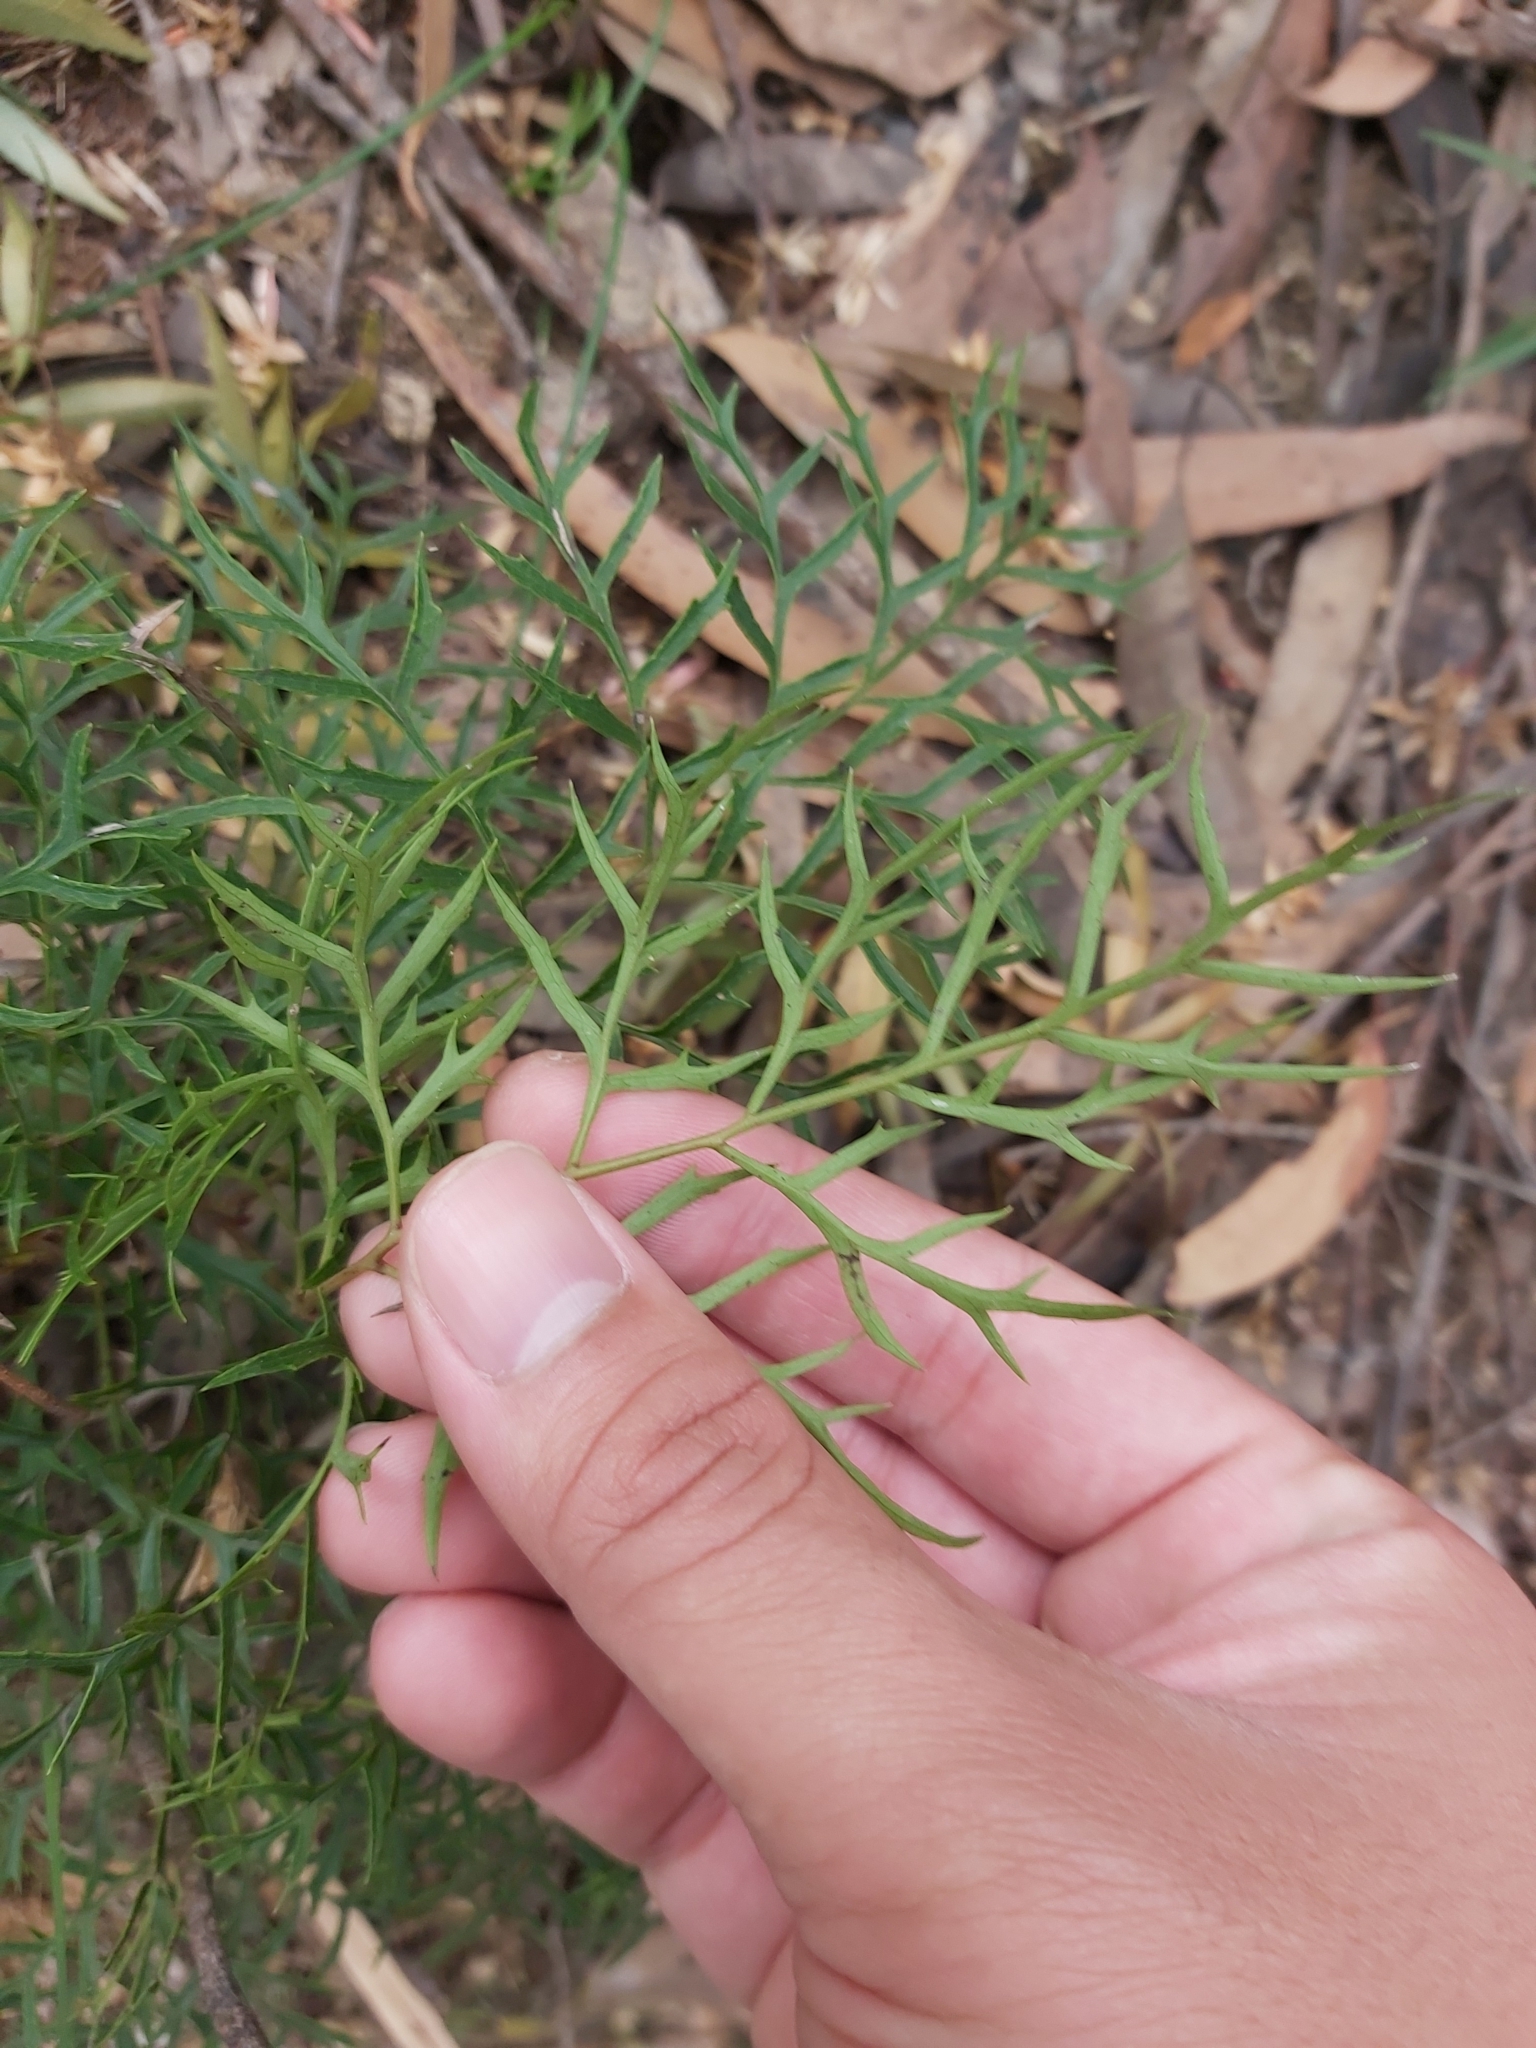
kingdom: Plantae
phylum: Tracheophyta
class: Magnoliopsida
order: Proteales
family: Proteaceae
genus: Lomatia
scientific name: Lomatia silaifolia
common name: Crinklebush
